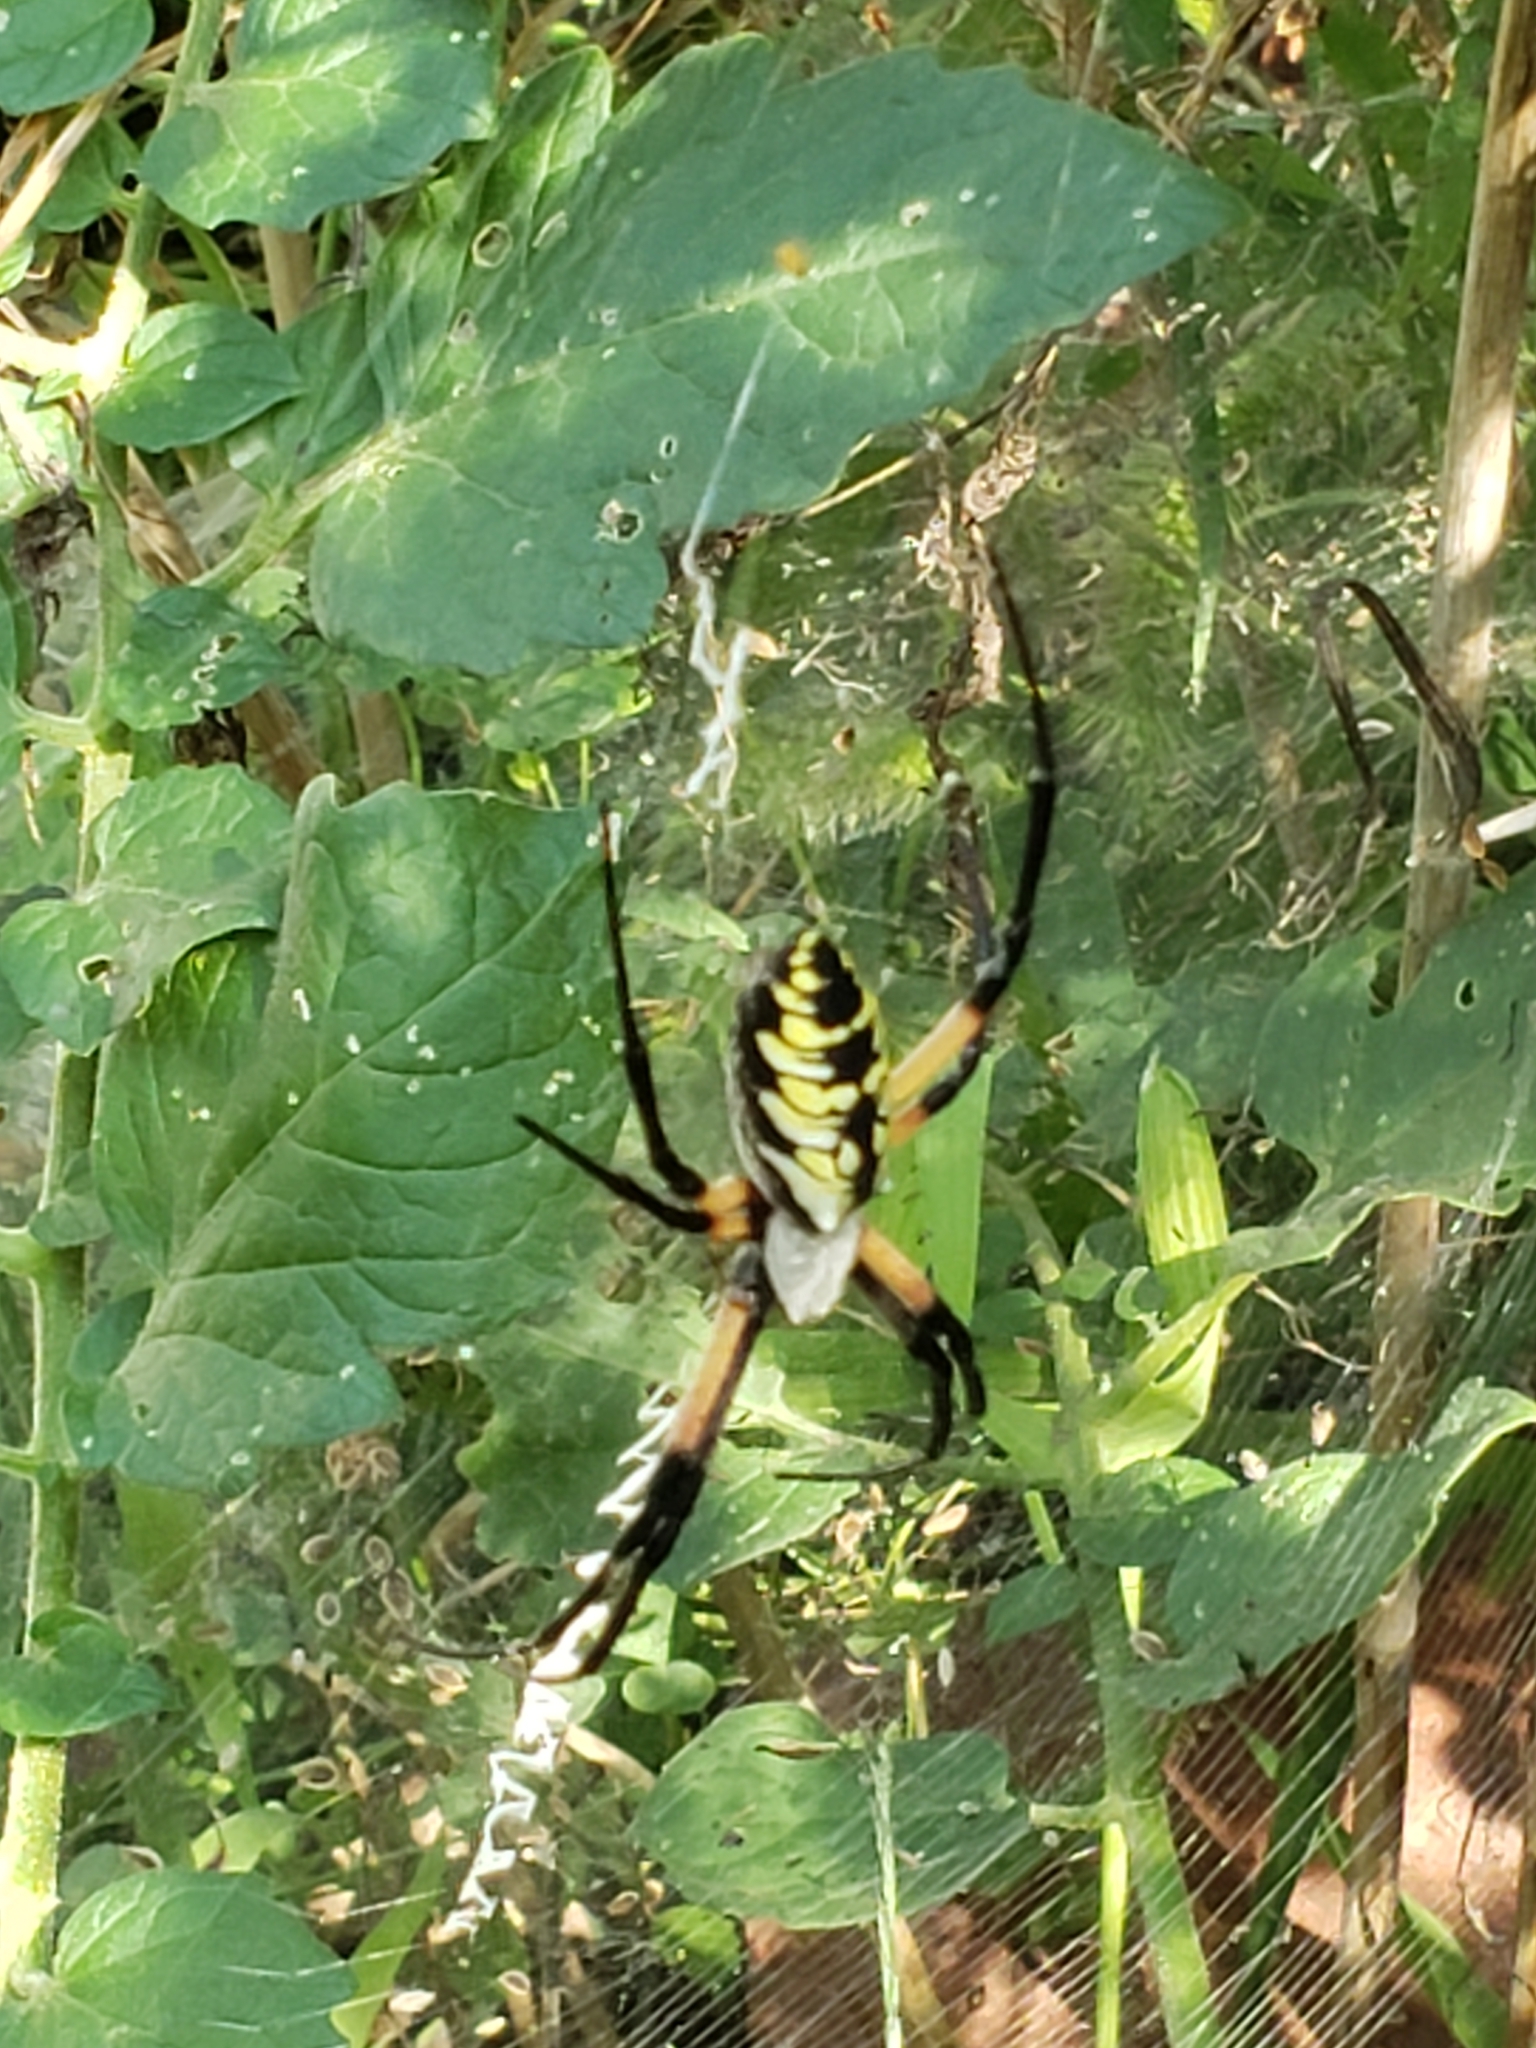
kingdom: Animalia
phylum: Arthropoda
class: Arachnida
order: Araneae
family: Araneidae
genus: Argiope
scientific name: Argiope aurantia
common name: Orb weavers
